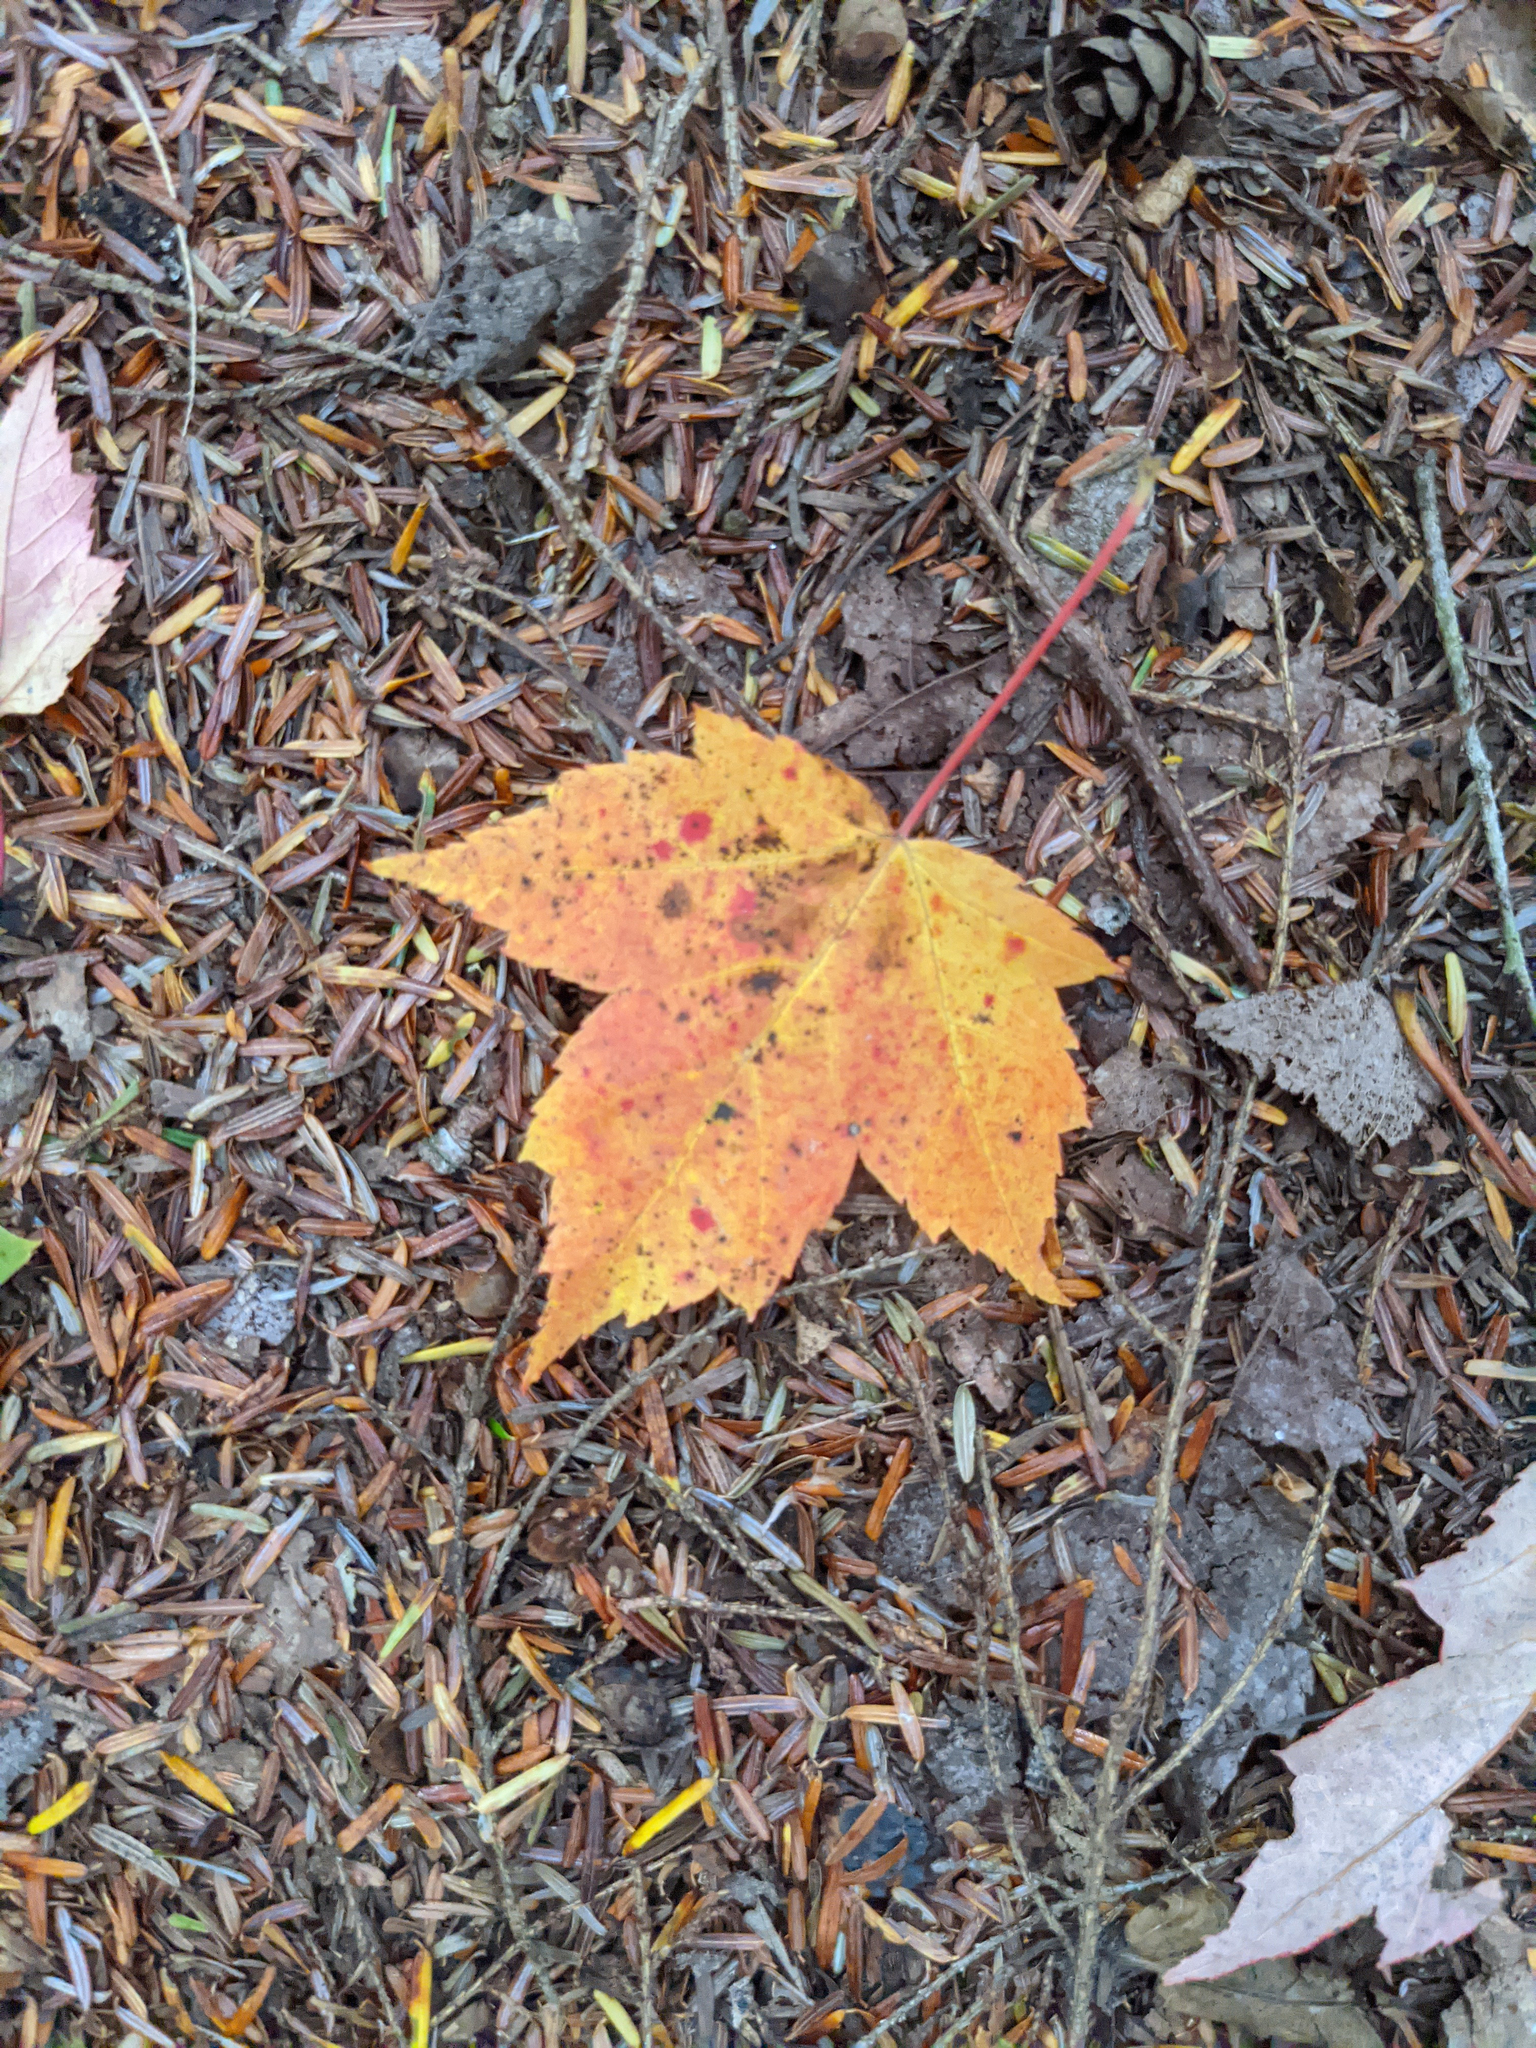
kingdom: Plantae
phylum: Tracheophyta
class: Magnoliopsida
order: Sapindales
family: Sapindaceae
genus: Acer
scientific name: Acer rubrum
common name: Red maple
